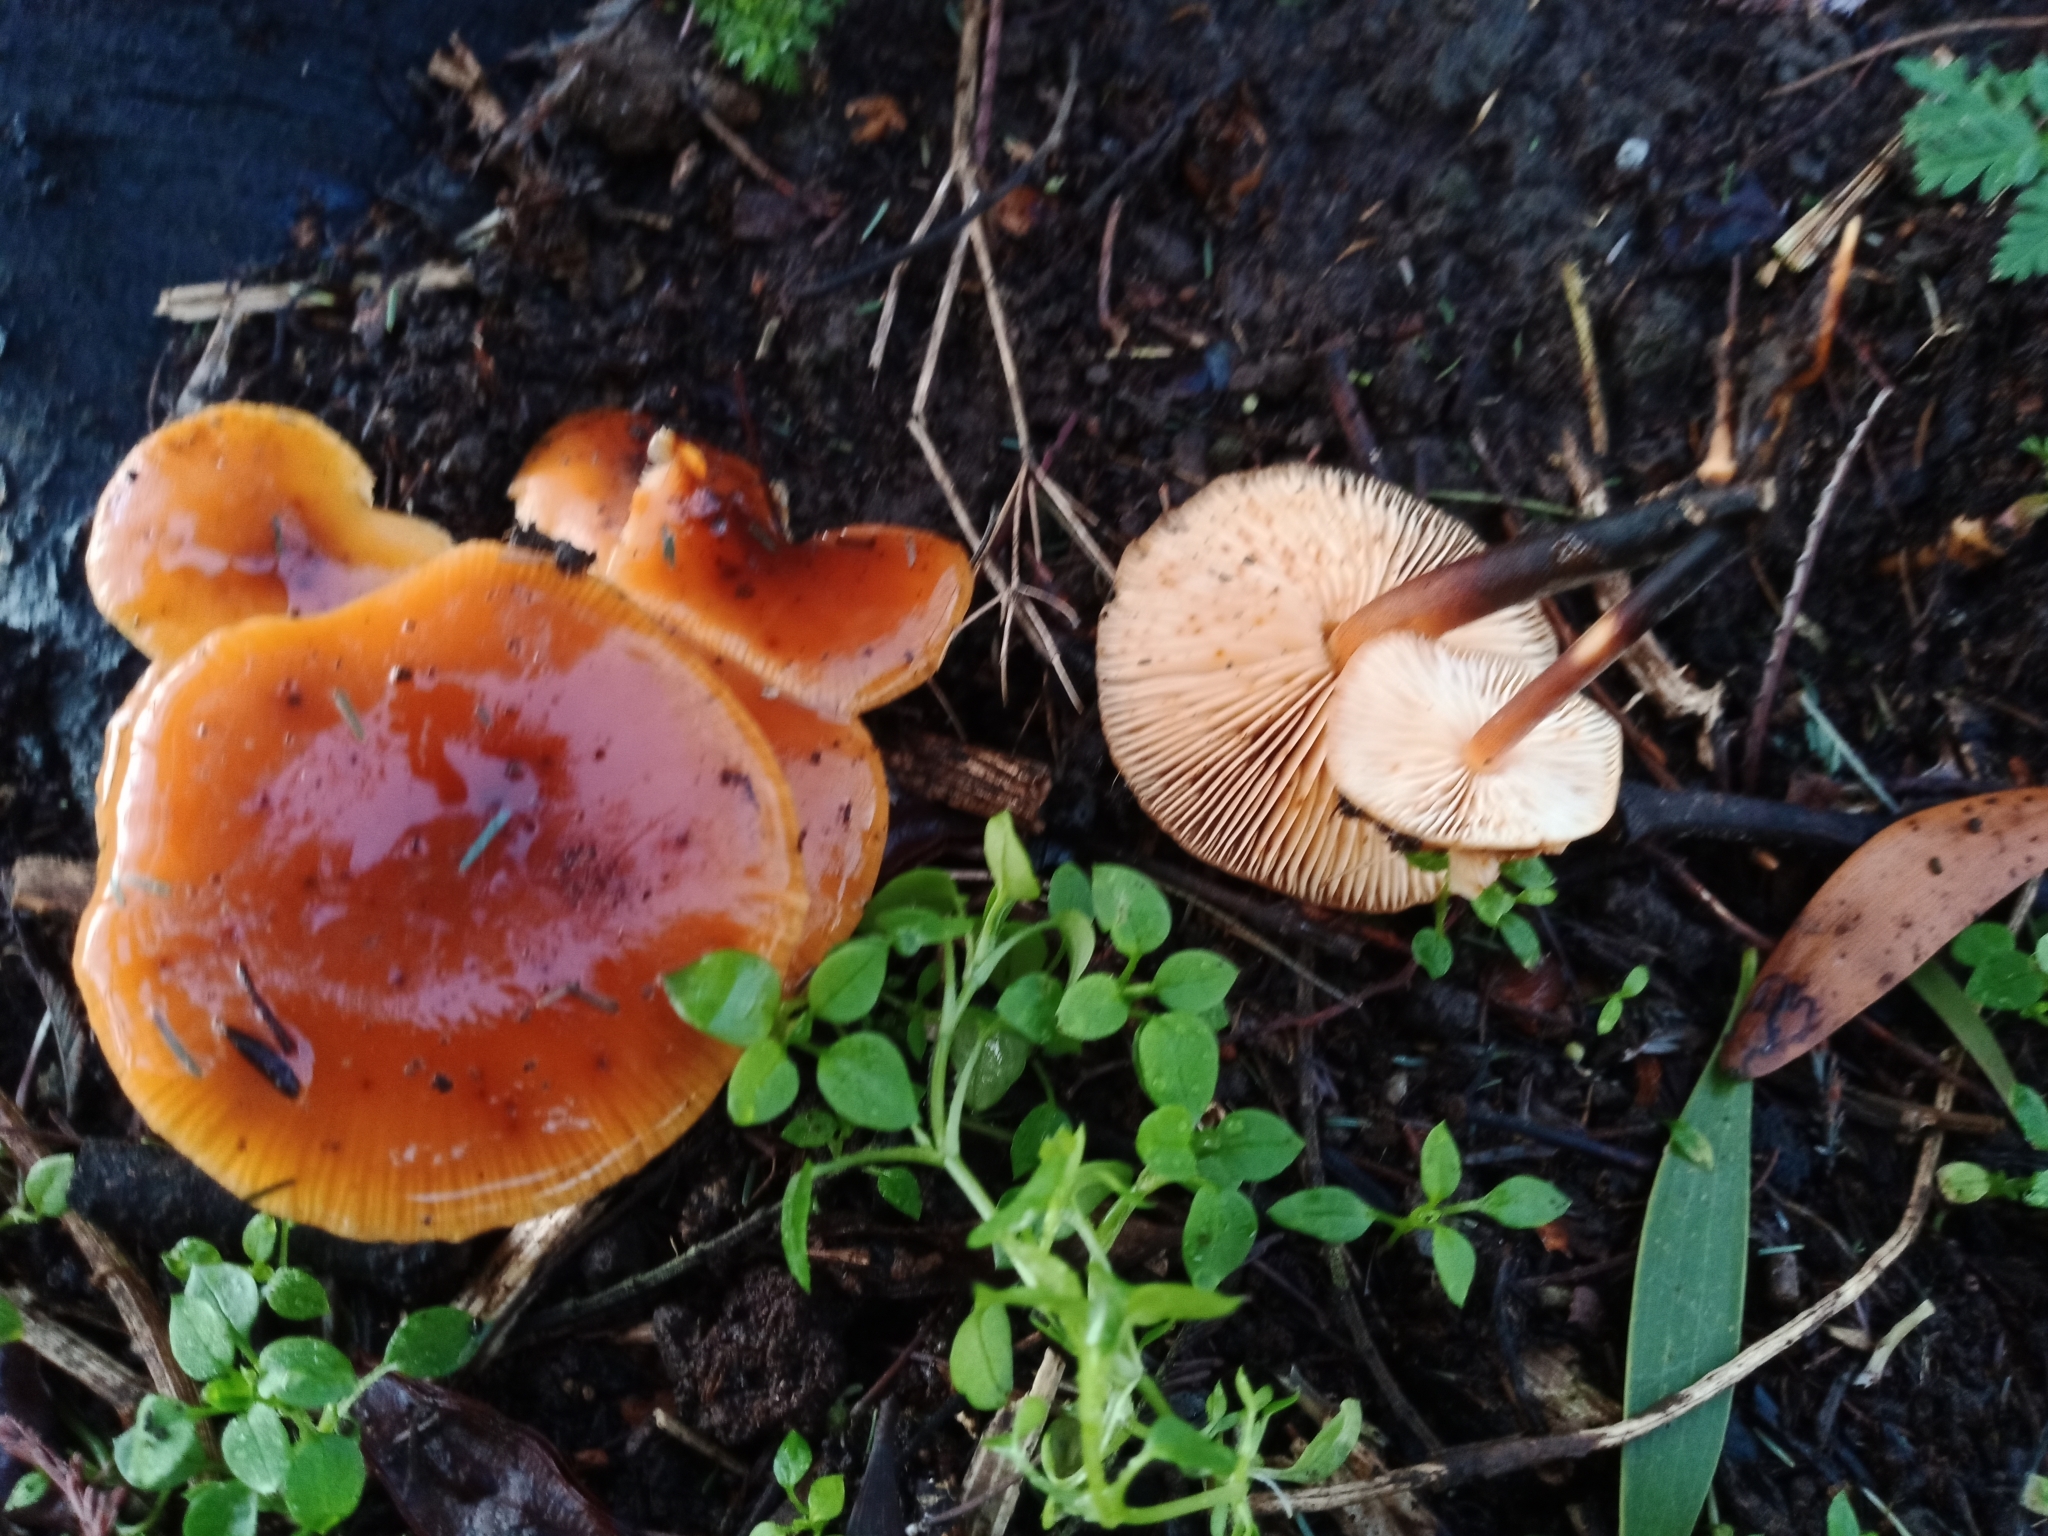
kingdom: Fungi
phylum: Basidiomycota
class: Agaricomycetes
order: Agaricales
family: Physalacriaceae
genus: Flammulina
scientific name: Flammulina velutipes
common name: Velvet shank
